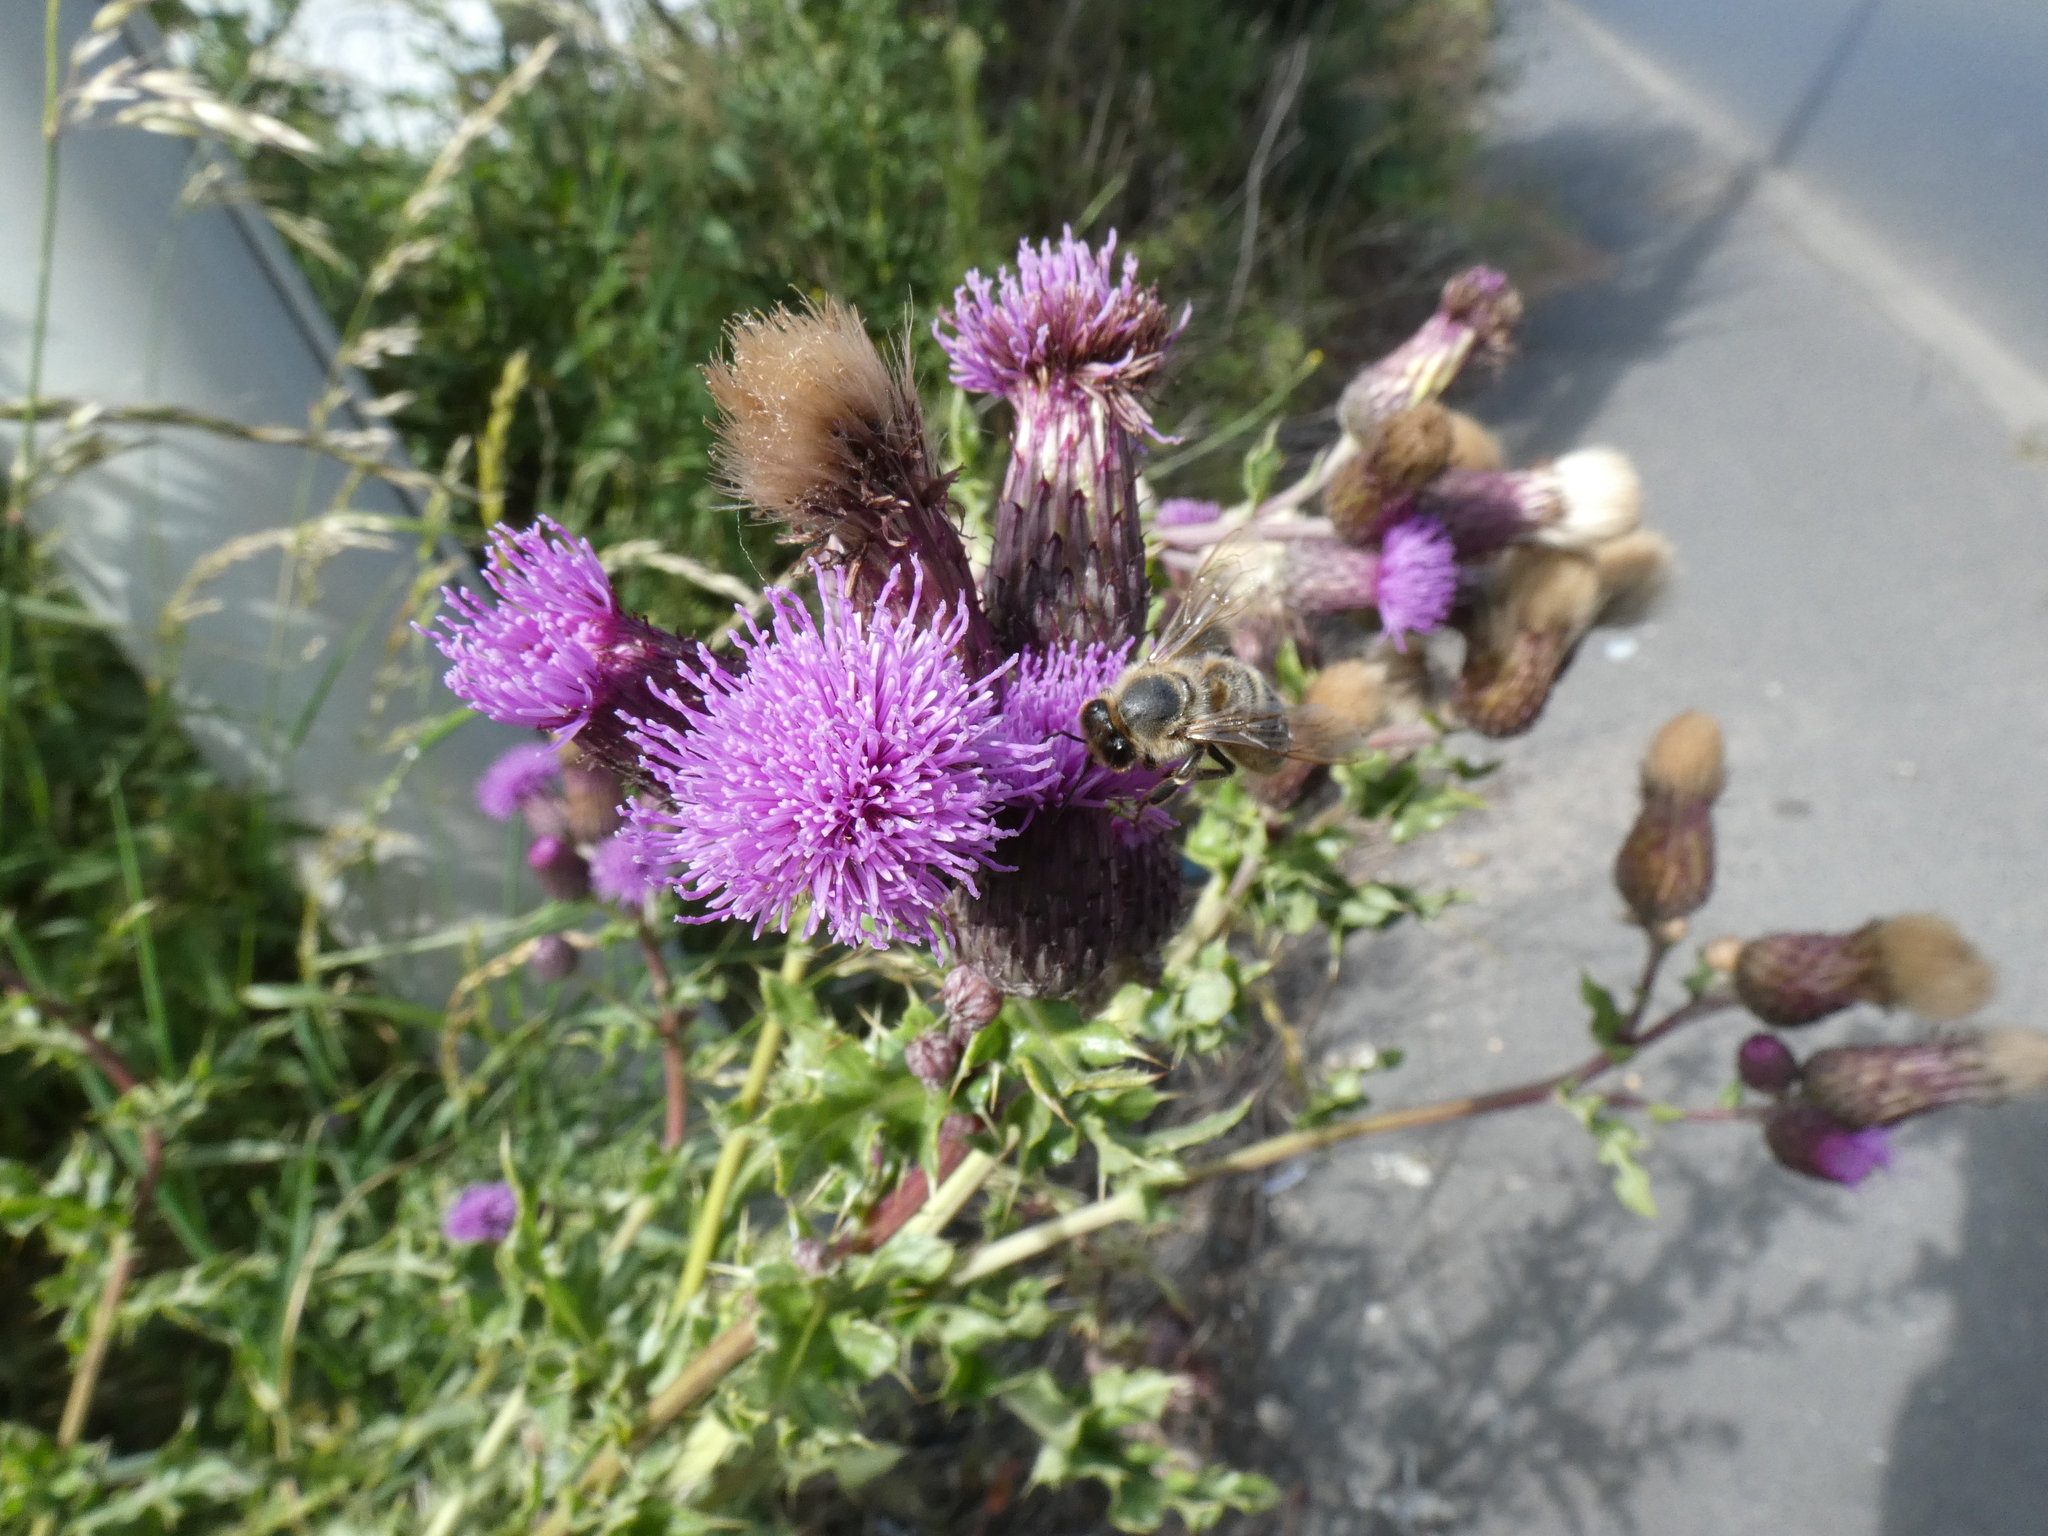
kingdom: Animalia
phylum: Arthropoda
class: Insecta
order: Hymenoptera
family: Apidae
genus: Apis
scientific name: Apis mellifera
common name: Honey bee
